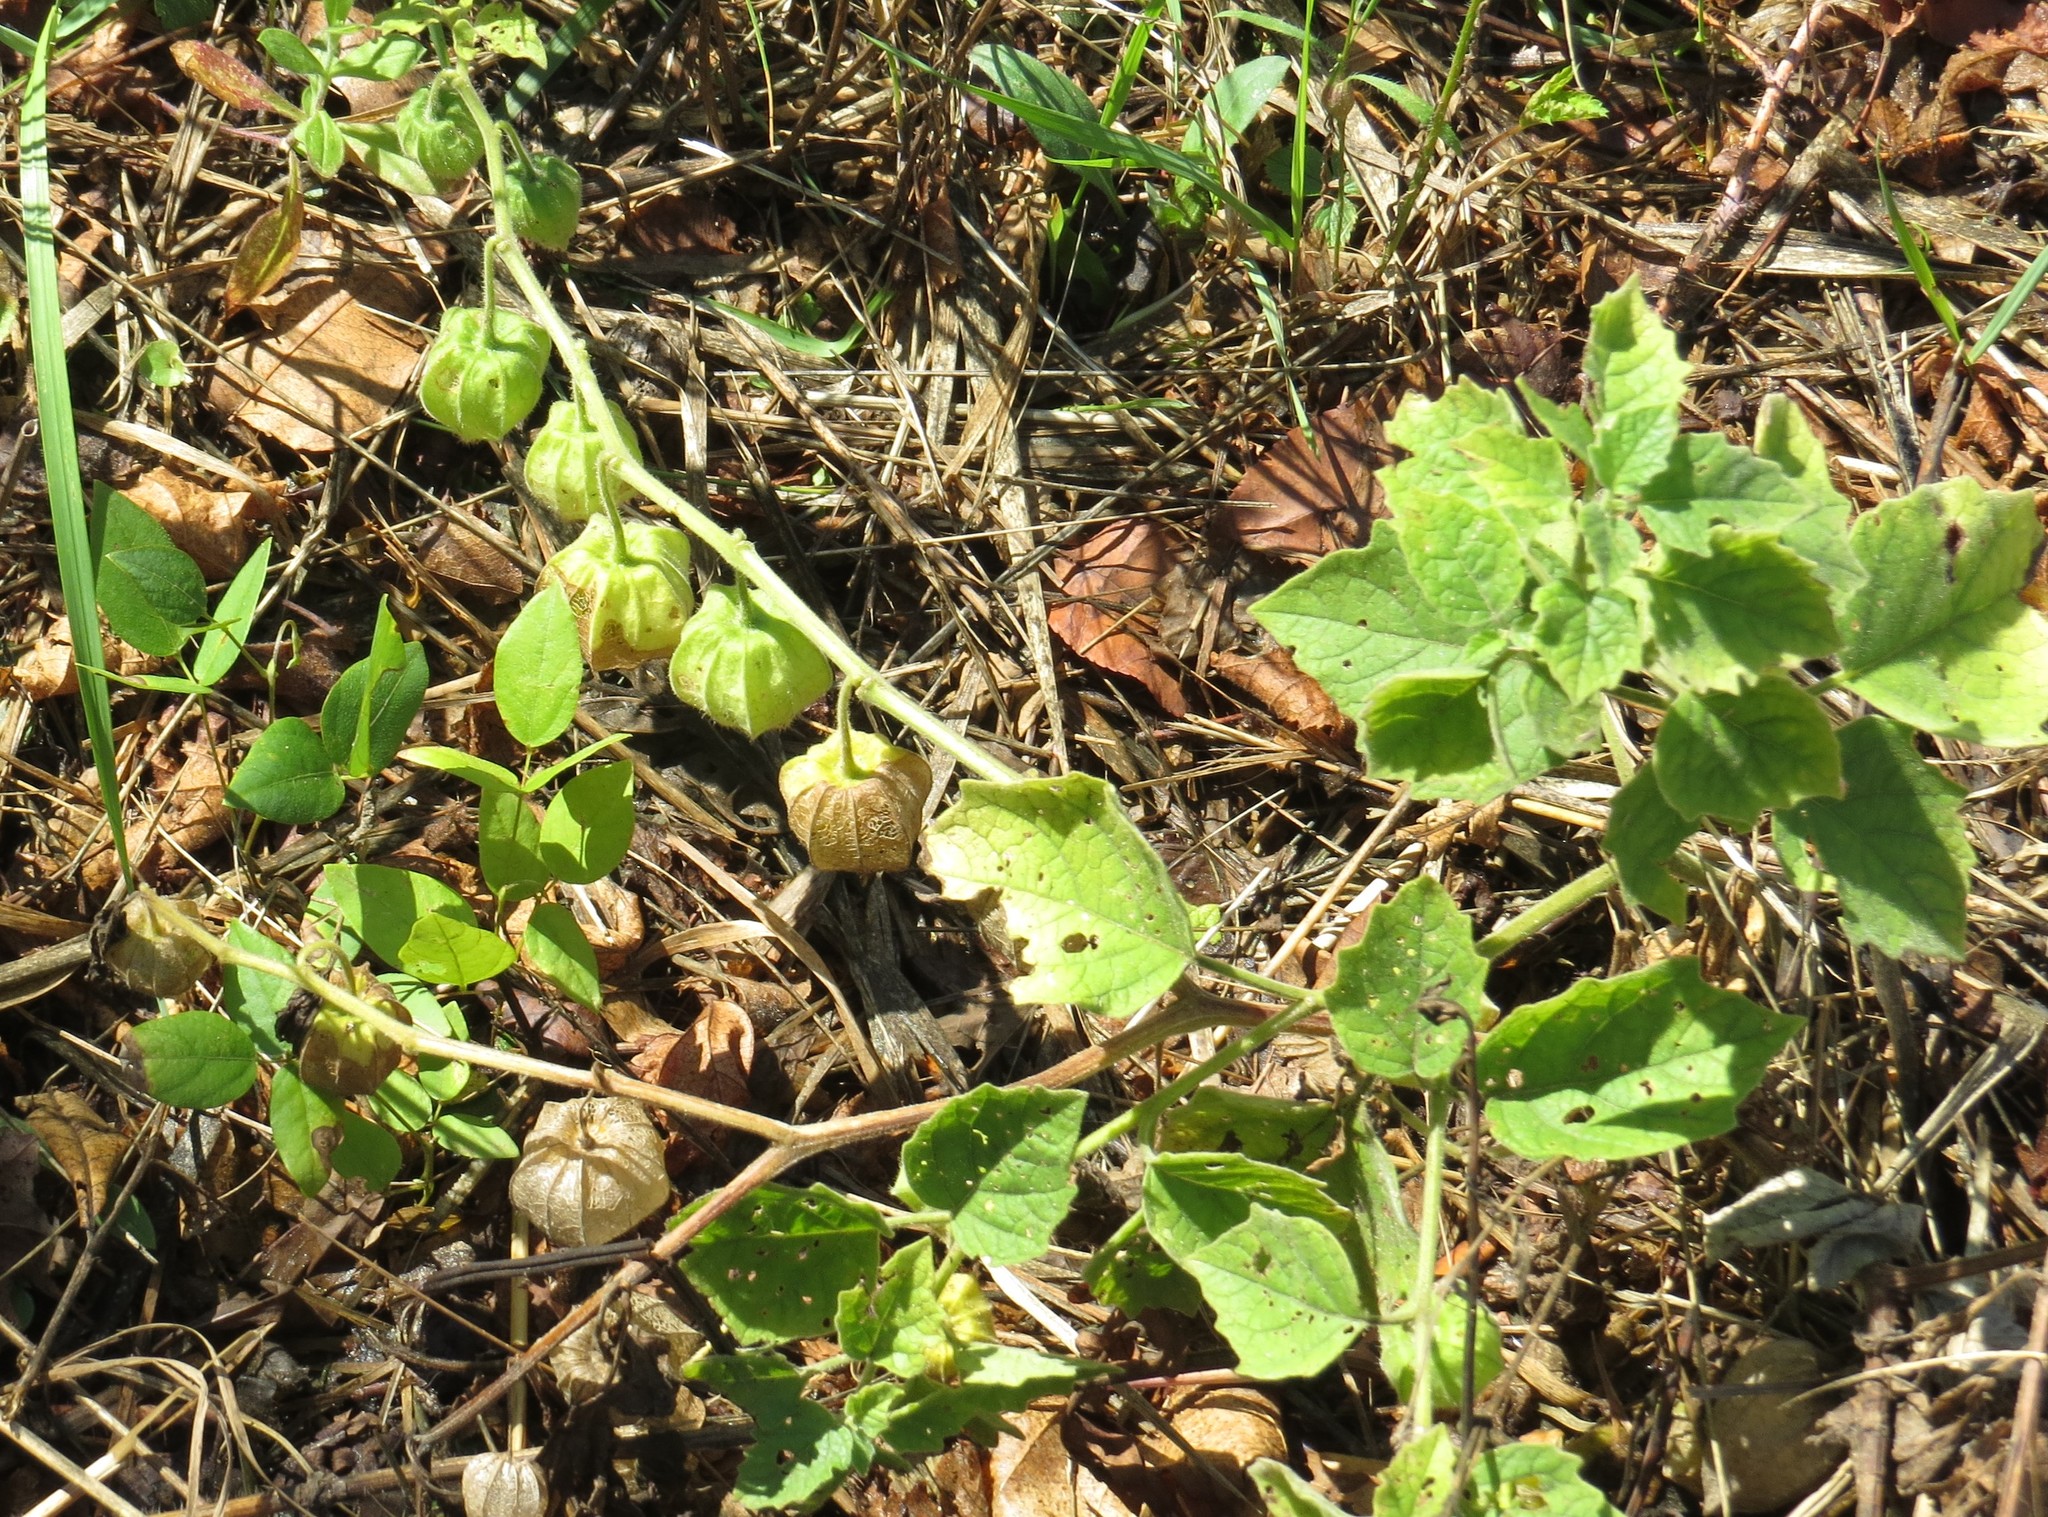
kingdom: Plantae
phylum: Tracheophyta
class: Magnoliopsida
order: Solanales
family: Solanaceae
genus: Physalis
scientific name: Physalis heterophylla
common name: Clammy ground-cherry
